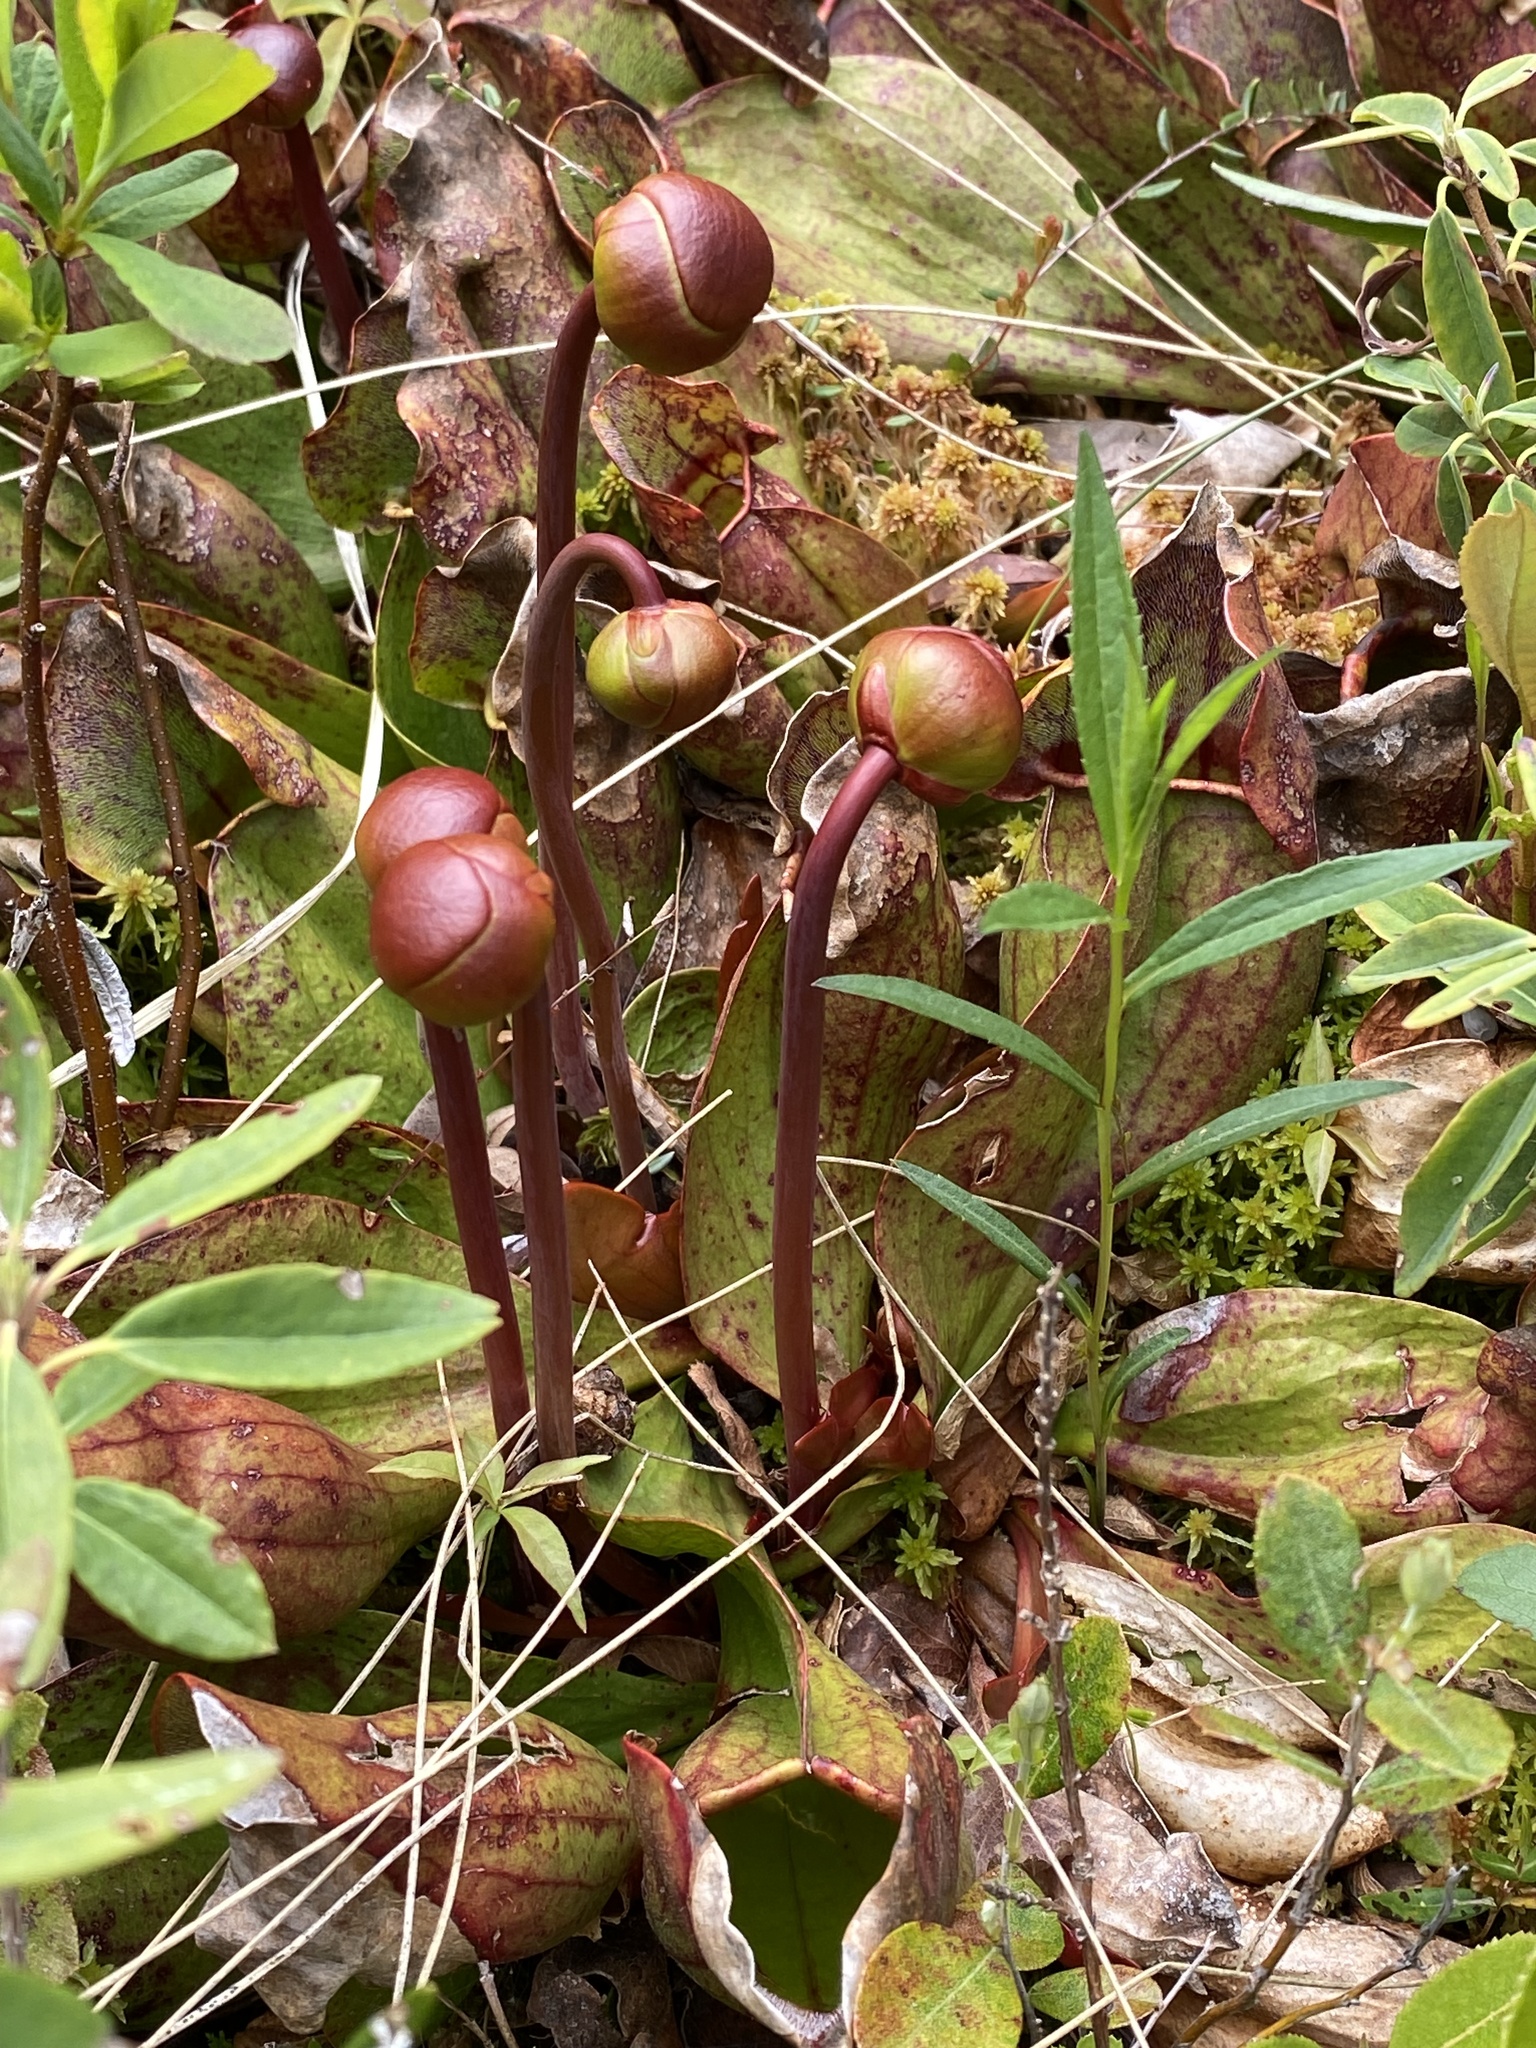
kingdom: Plantae
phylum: Tracheophyta
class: Magnoliopsida
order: Ericales
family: Sarraceniaceae
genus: Sarracenia
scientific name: Sarracenia purpurea
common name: Pitcherplant
